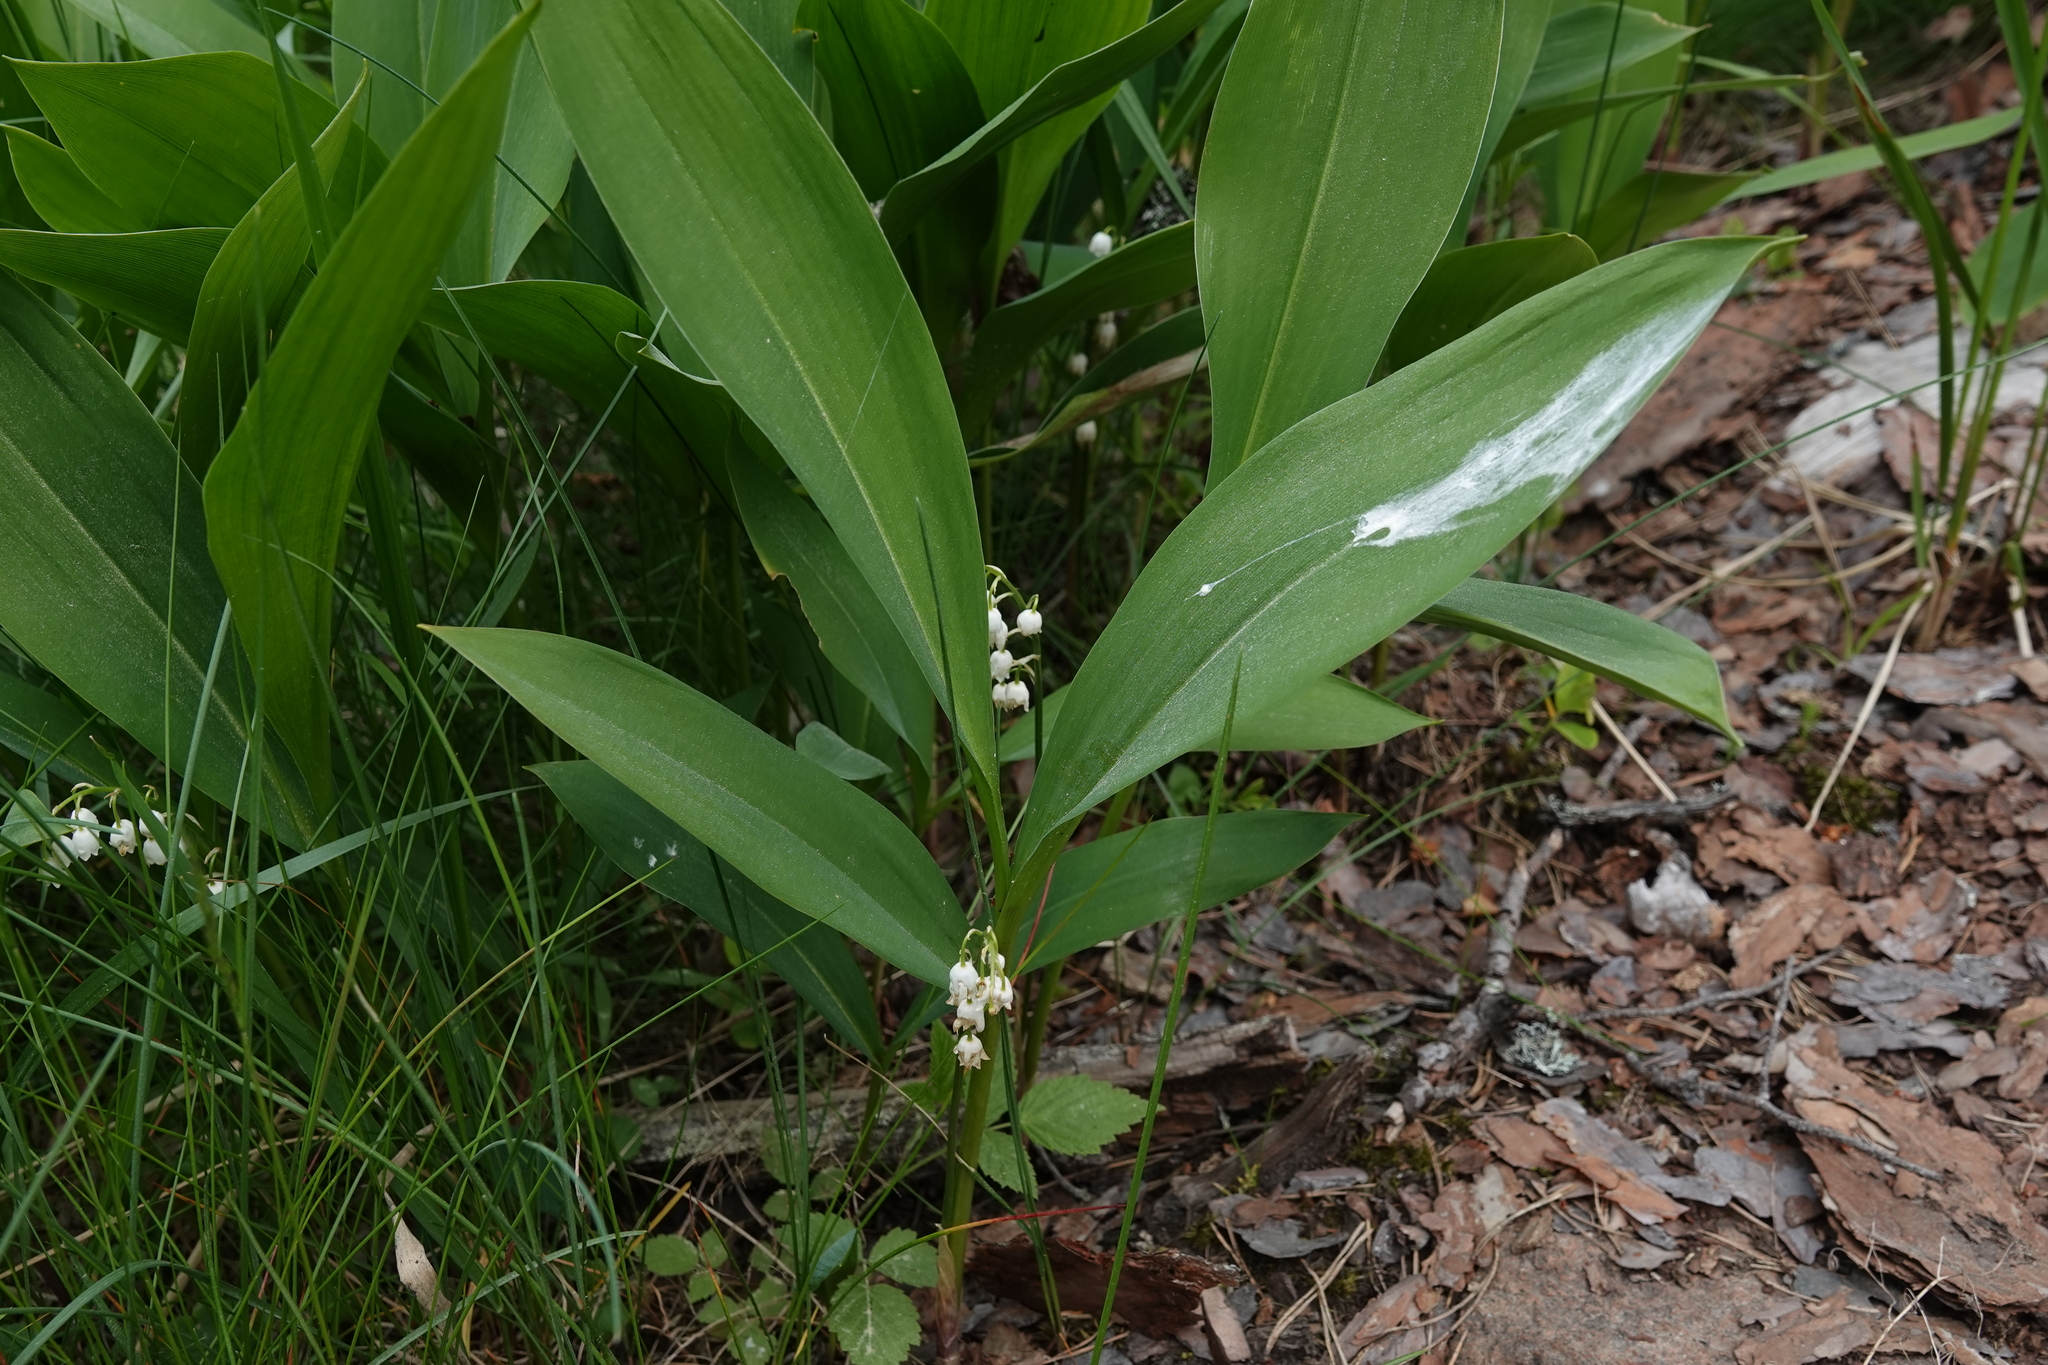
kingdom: Plantae
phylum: Tracheophyta
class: Liliopsida
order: Asparagales
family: Asparagaceae
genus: Convallaria
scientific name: Convallaria majalis
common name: Lily-of-the-valley
